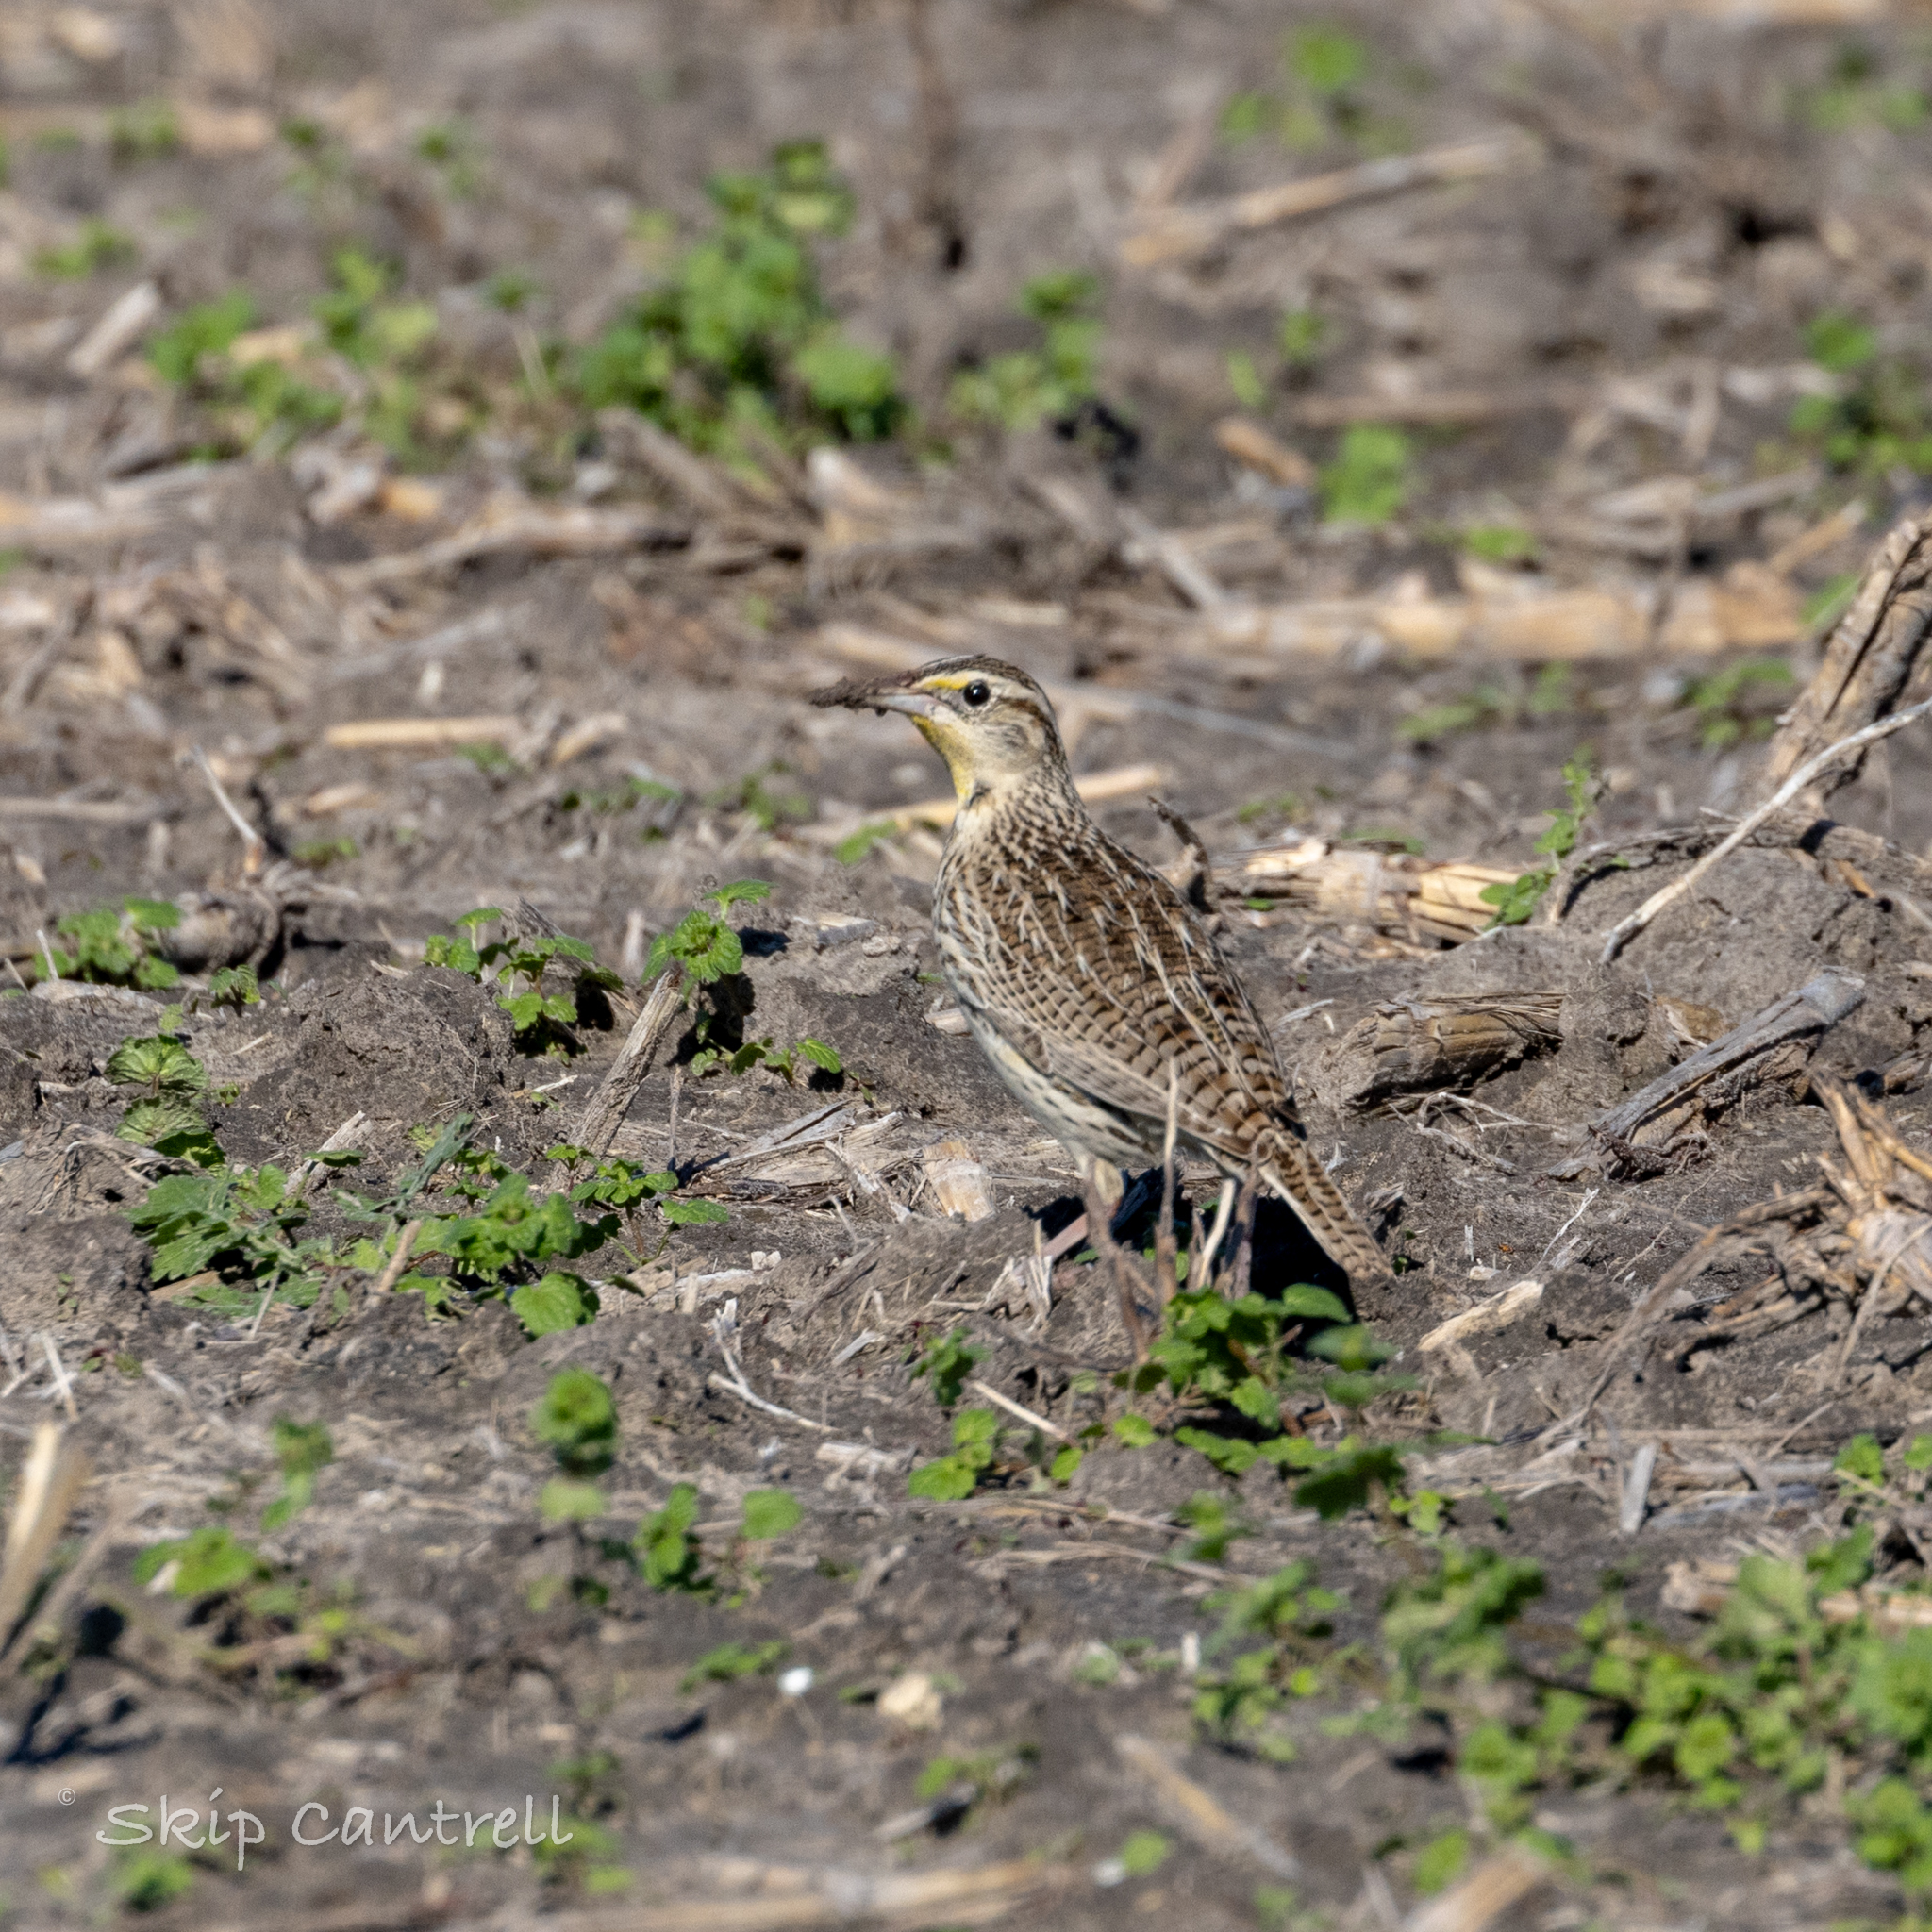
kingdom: Animalia
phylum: Chordata
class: Aves
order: Passeriformes
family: Icteridae
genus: Sturnella
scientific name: Sturnella neglecta
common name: Western meadowlark
